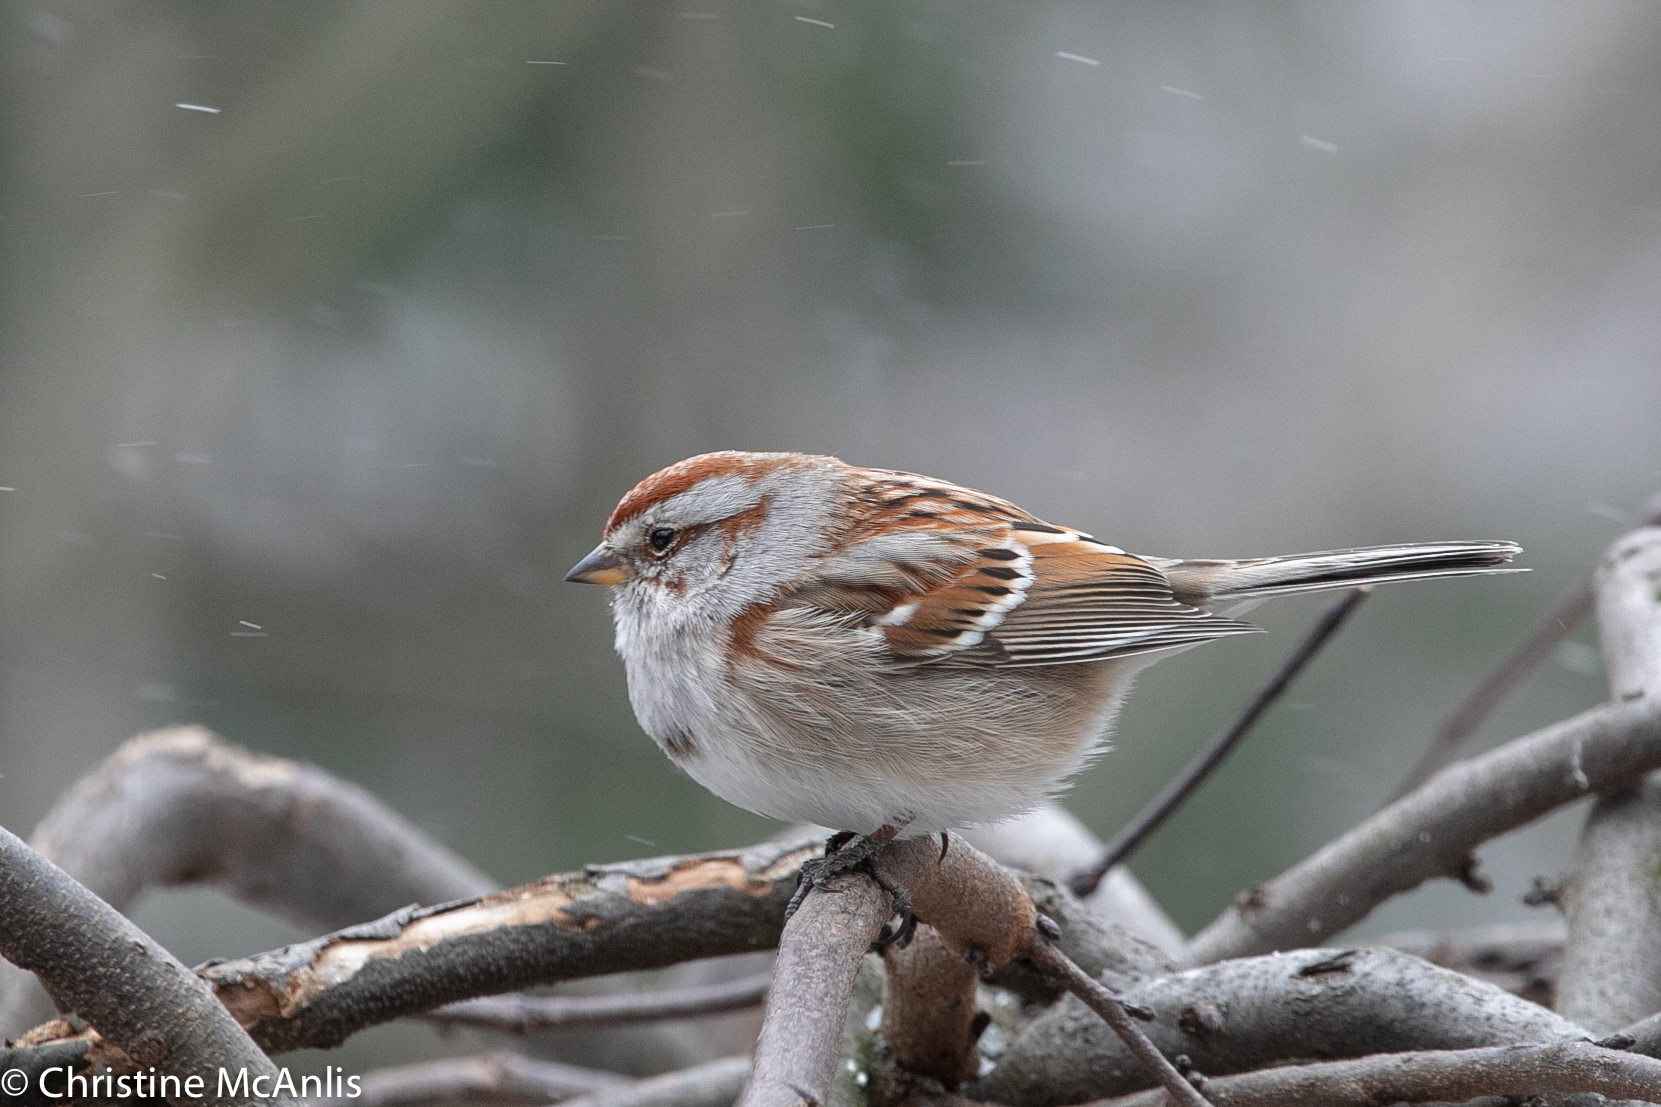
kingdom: Animalia
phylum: Chordata
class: Aves
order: Passeriformes
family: Passerellidae
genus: Spizelloides
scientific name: Spizelloides arborea
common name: American tree sparrow
